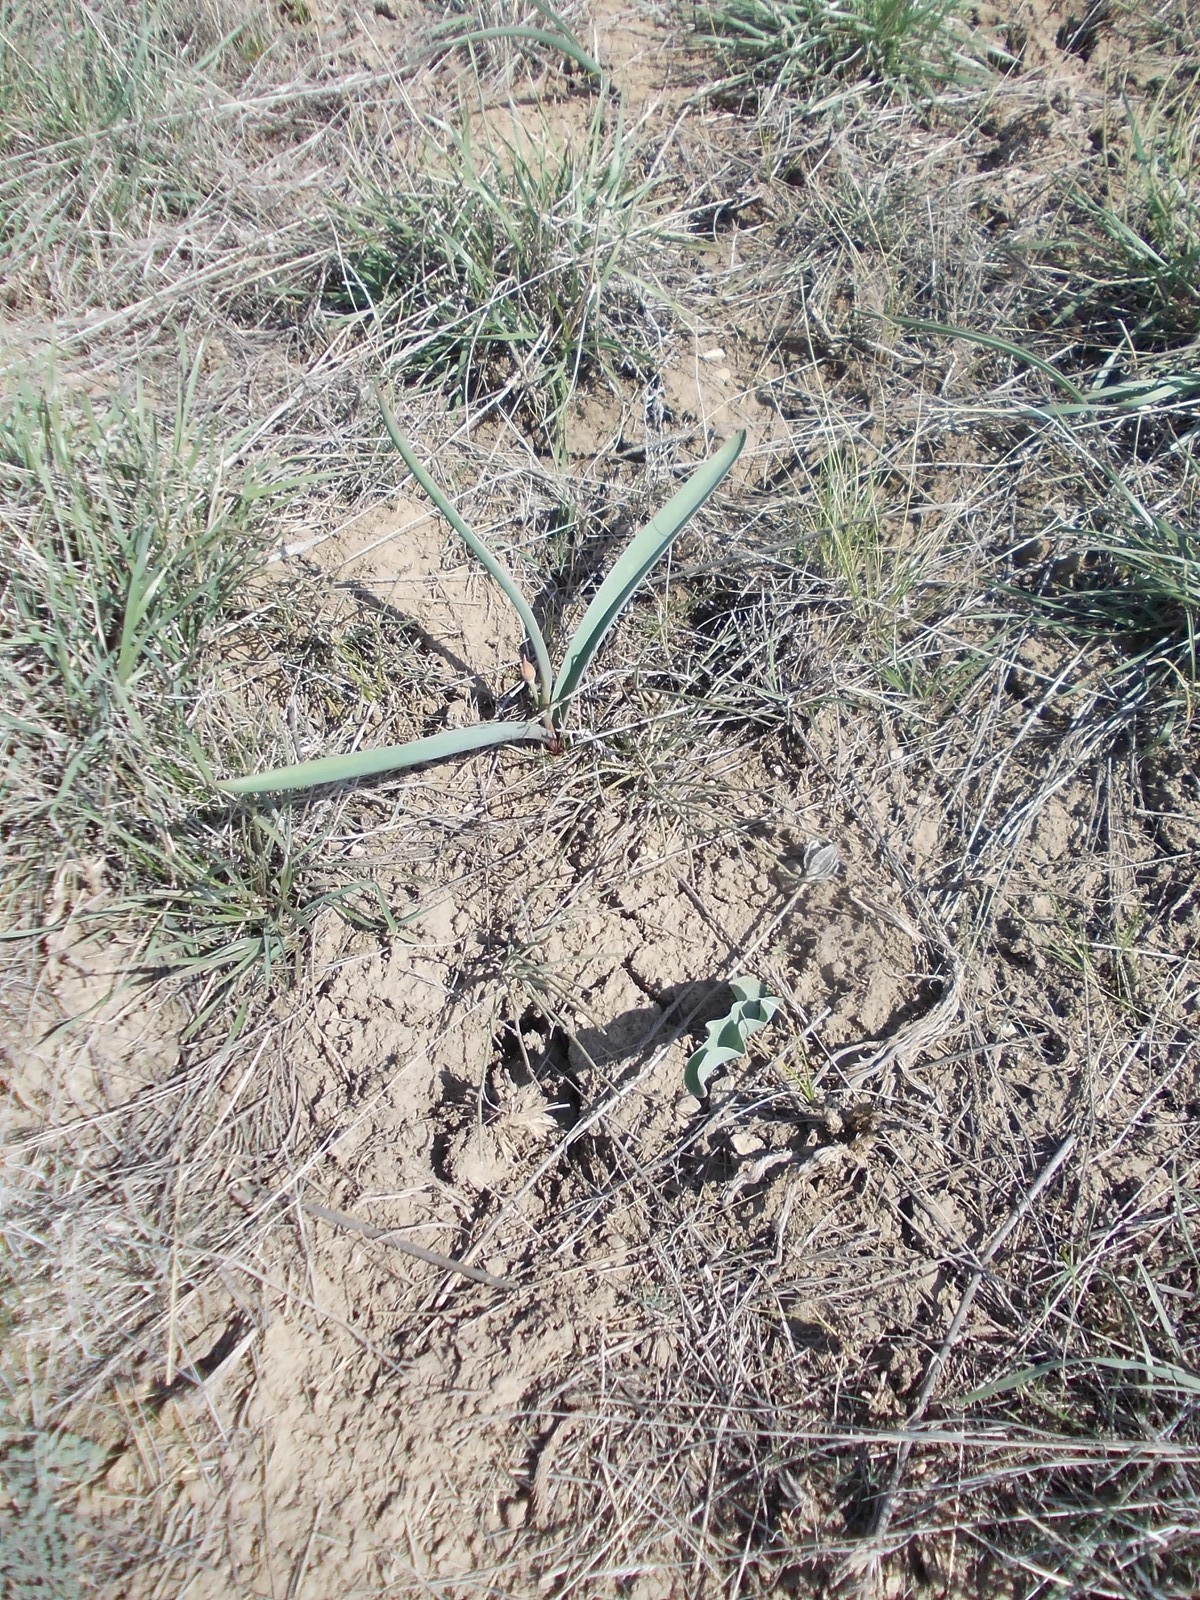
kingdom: Plantae
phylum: Tracheophyta
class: Liliopsida
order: Asparagales
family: Amaryllidaceae
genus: Allium
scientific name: Allium tulipifolium
